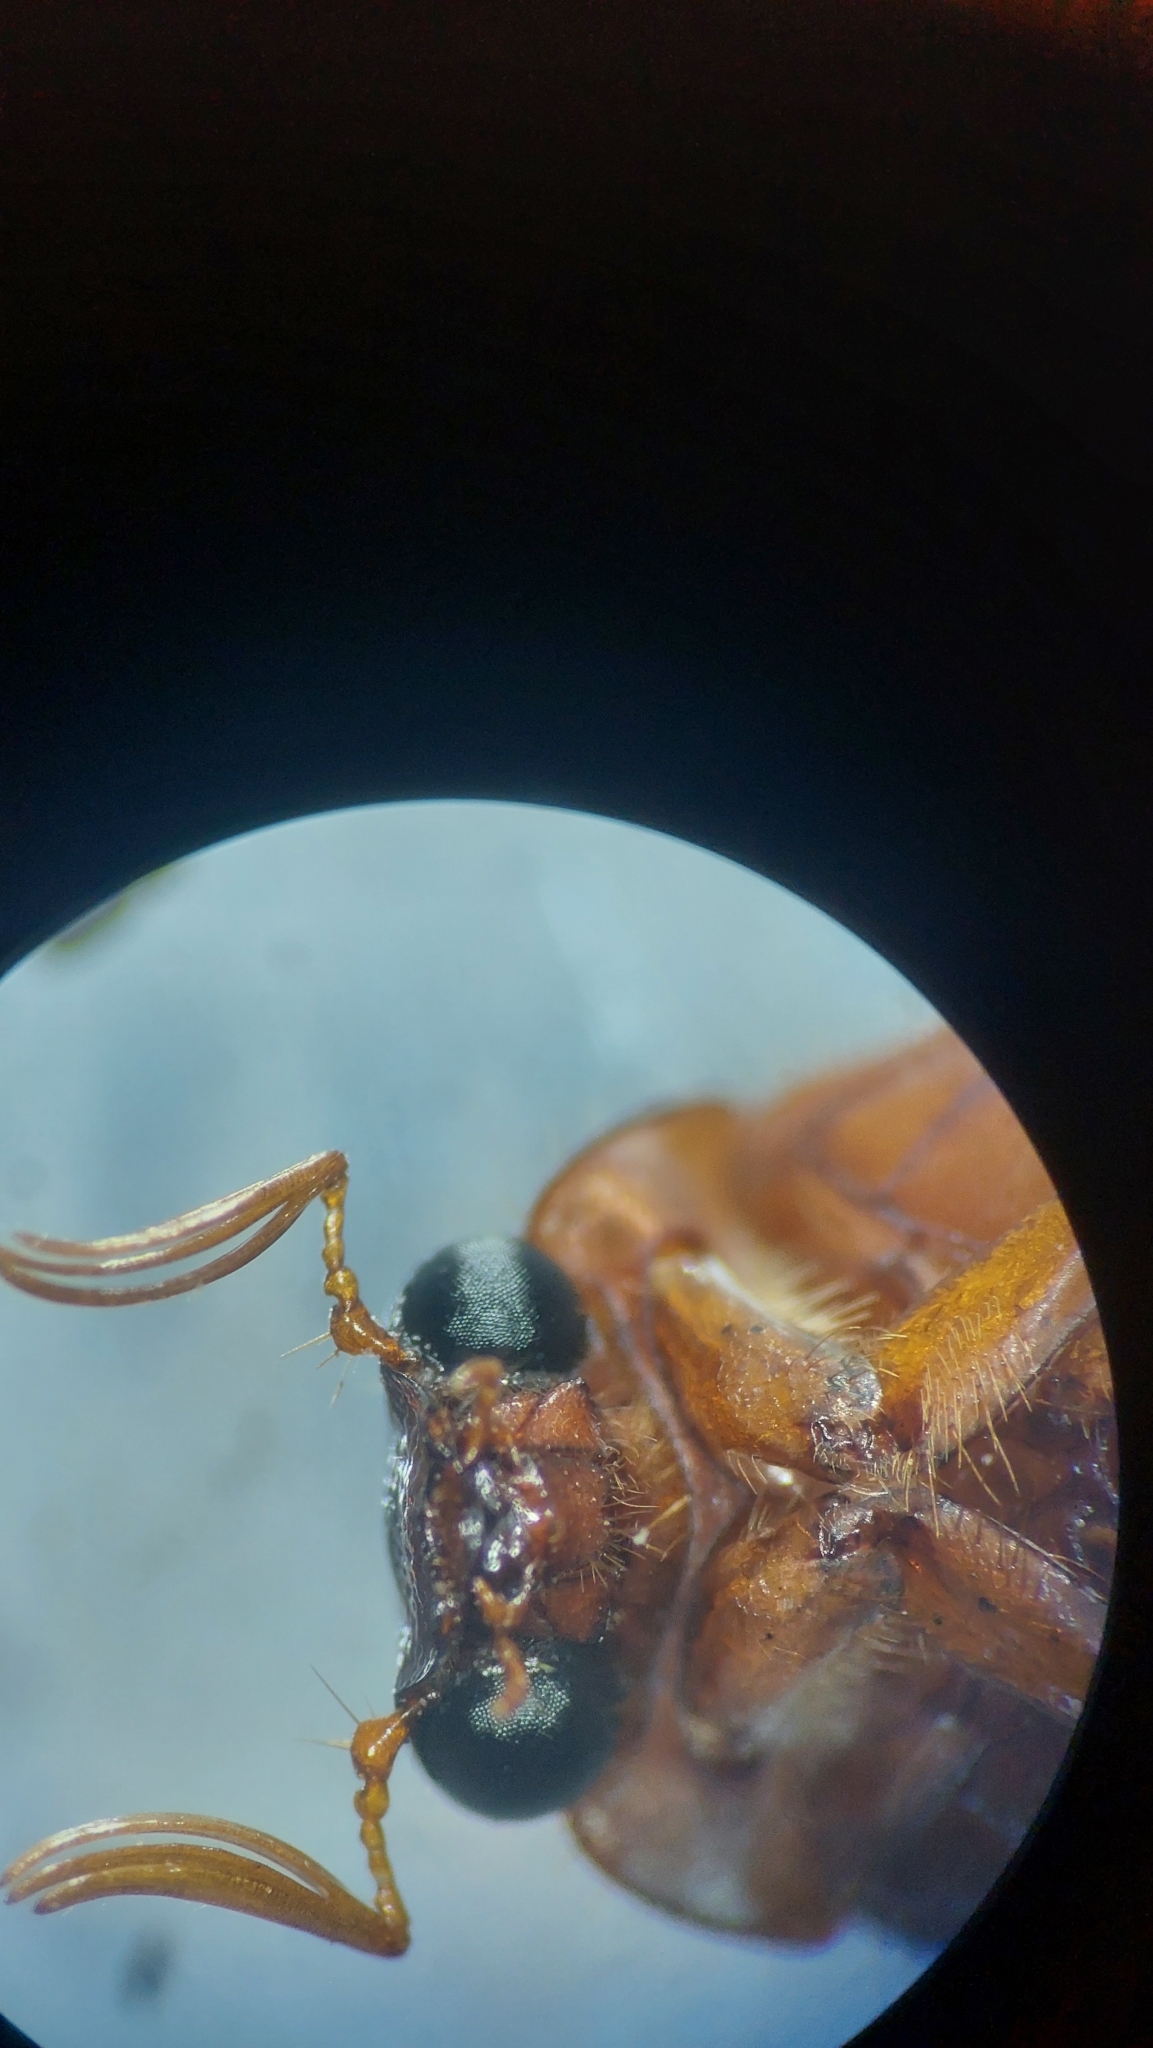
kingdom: Animalia
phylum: Arthropoda
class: Insecta
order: Coleoptera
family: Scarabaeidae
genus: Serica
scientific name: Serica brunnea
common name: Brown chafer
